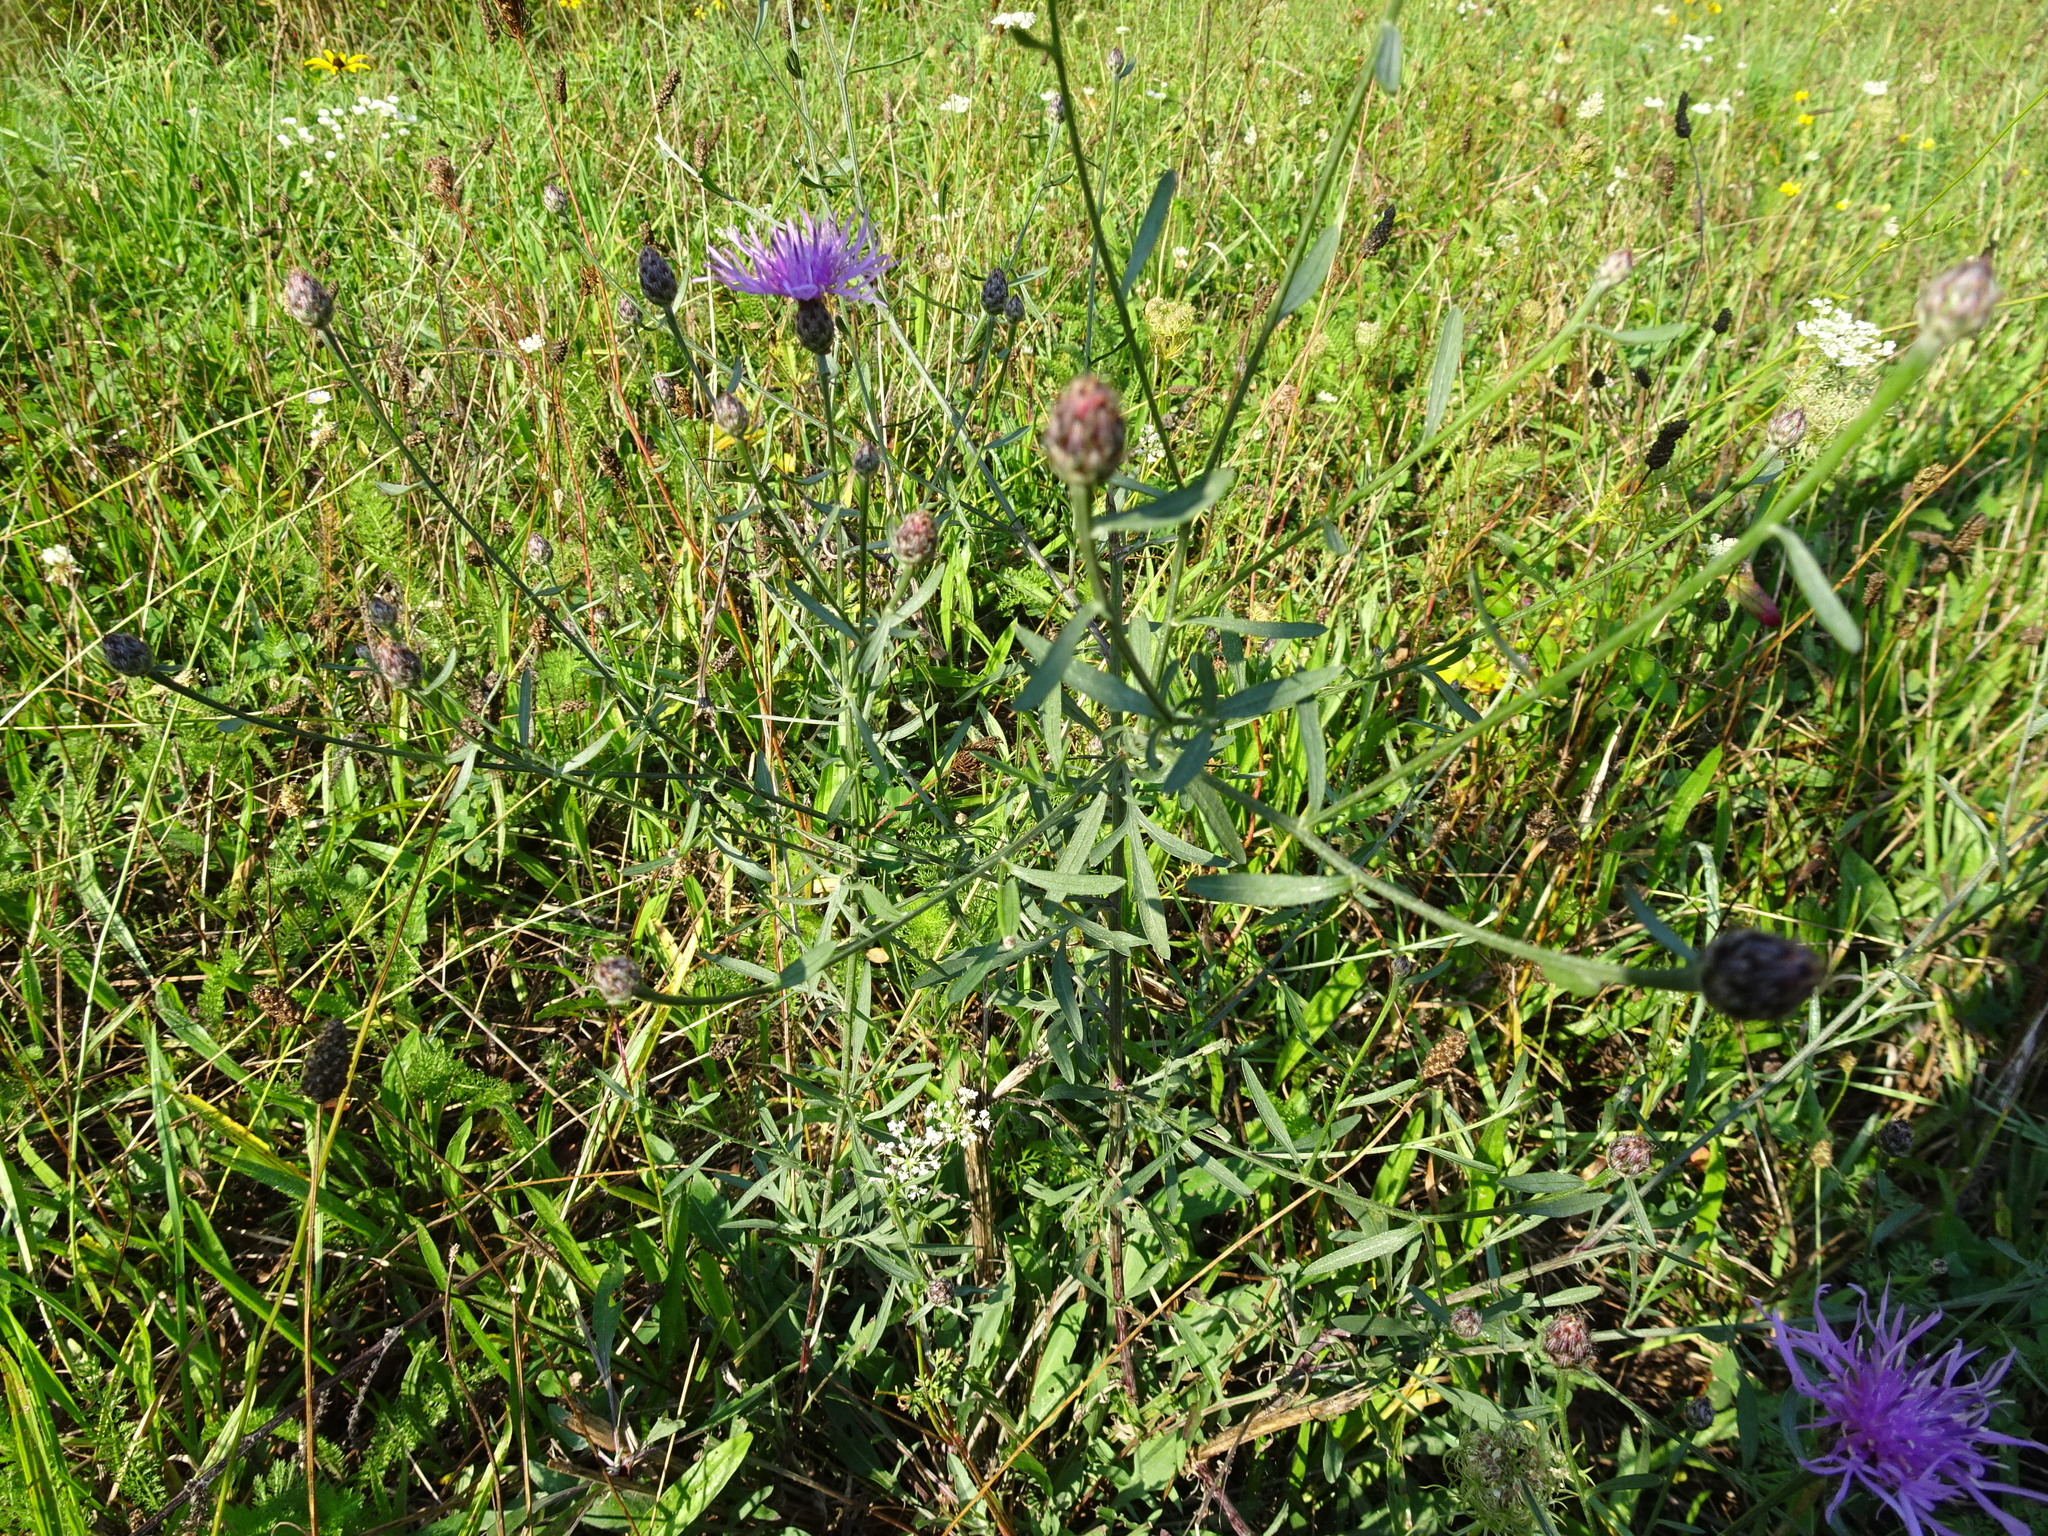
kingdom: Plantae
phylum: Tracheophyta
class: Magnoliopsida
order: Asterales
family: Asteraceae
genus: Centaurea
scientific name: Centaurea stoebe
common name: Spotted knapweed
